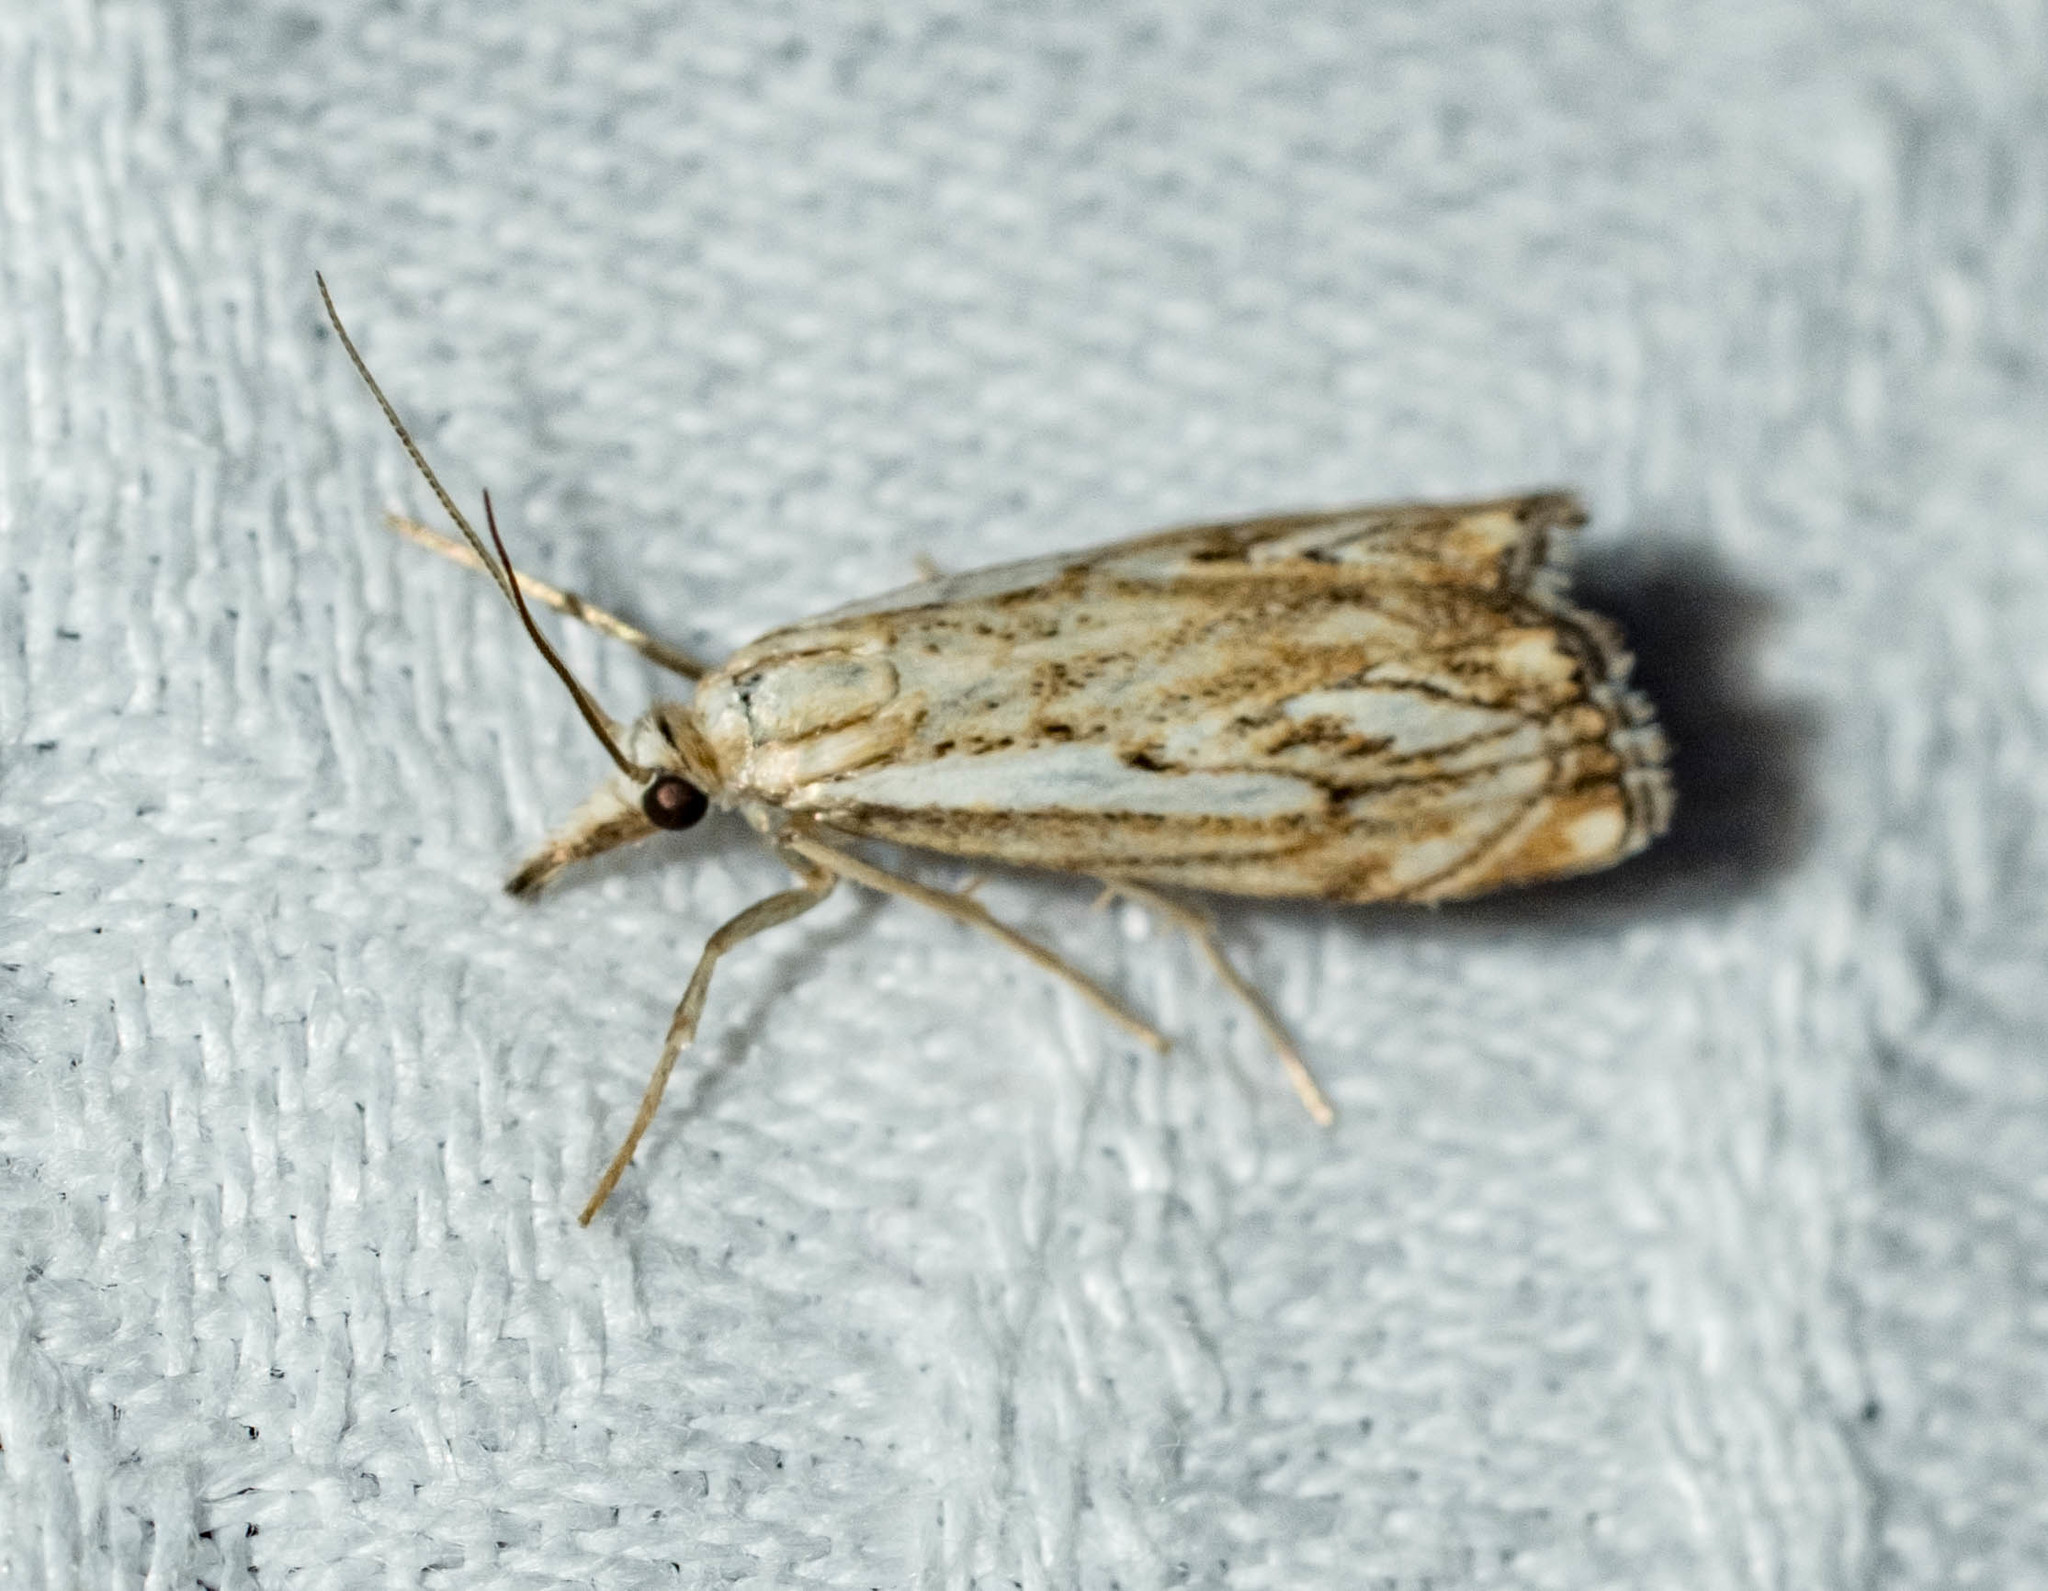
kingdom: Animalia
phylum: Arthropoda
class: Insecta
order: Lepidoptera
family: Crambidae
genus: Catoptria
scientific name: Catoptria falsella
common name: Chequered grass-veneer
